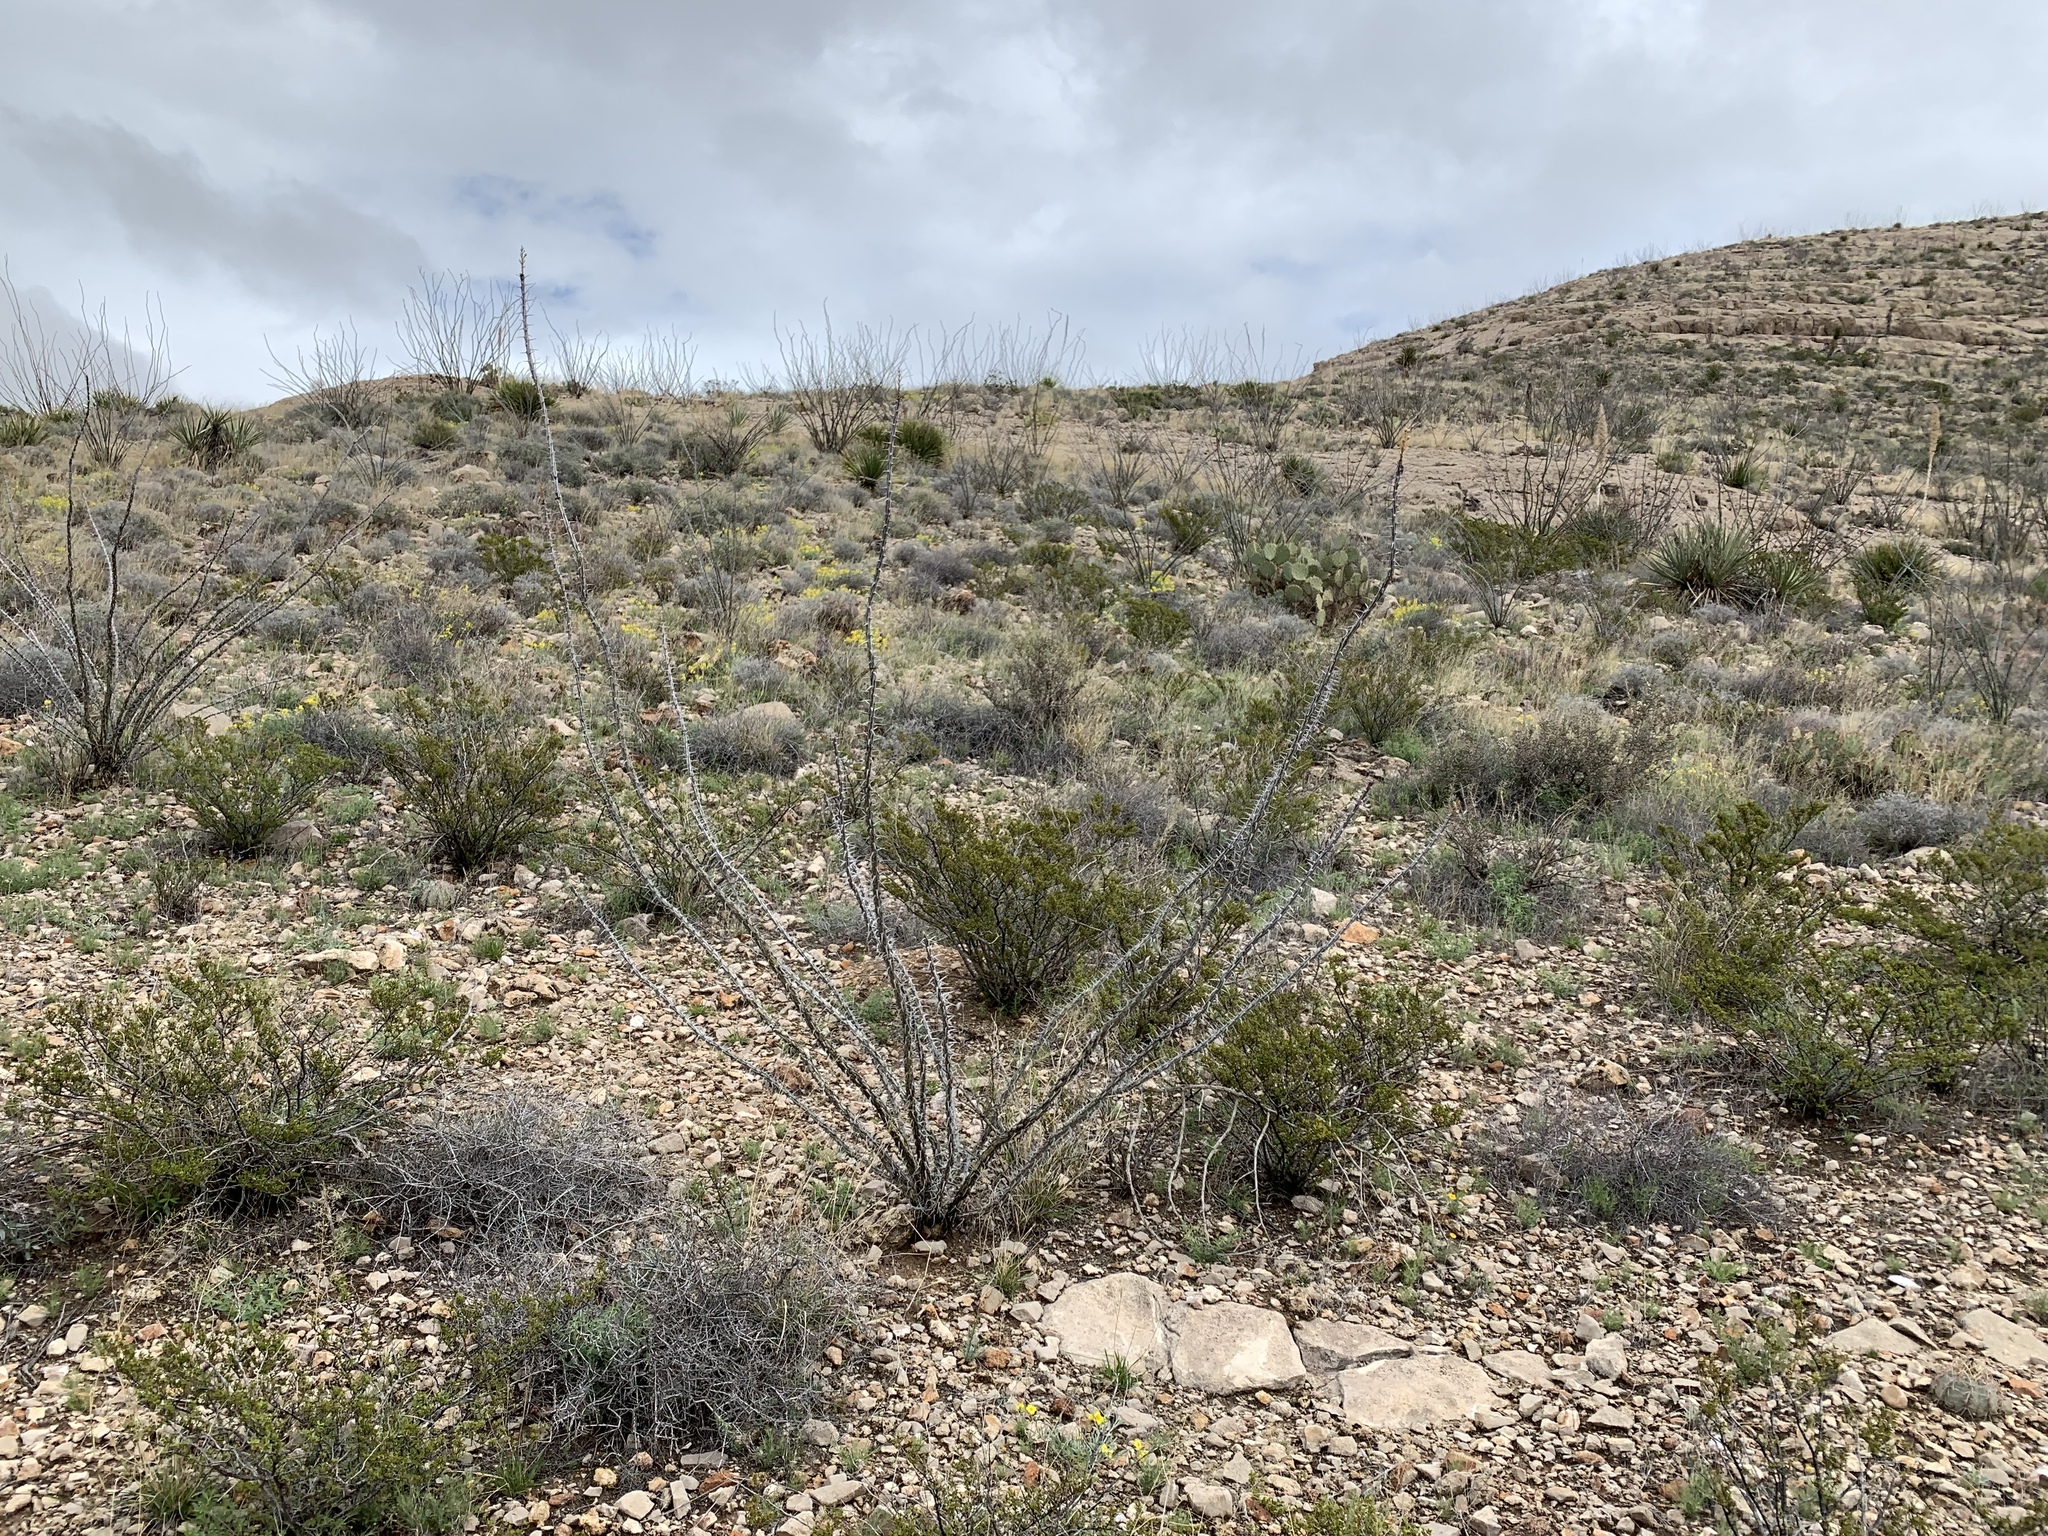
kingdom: Plantae
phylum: Tracheophyta
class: Magnoliopsida
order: Ericales
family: Fouquieriaceae
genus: Fouquieria
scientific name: Fouquieria splendens
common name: Vine-cactus
